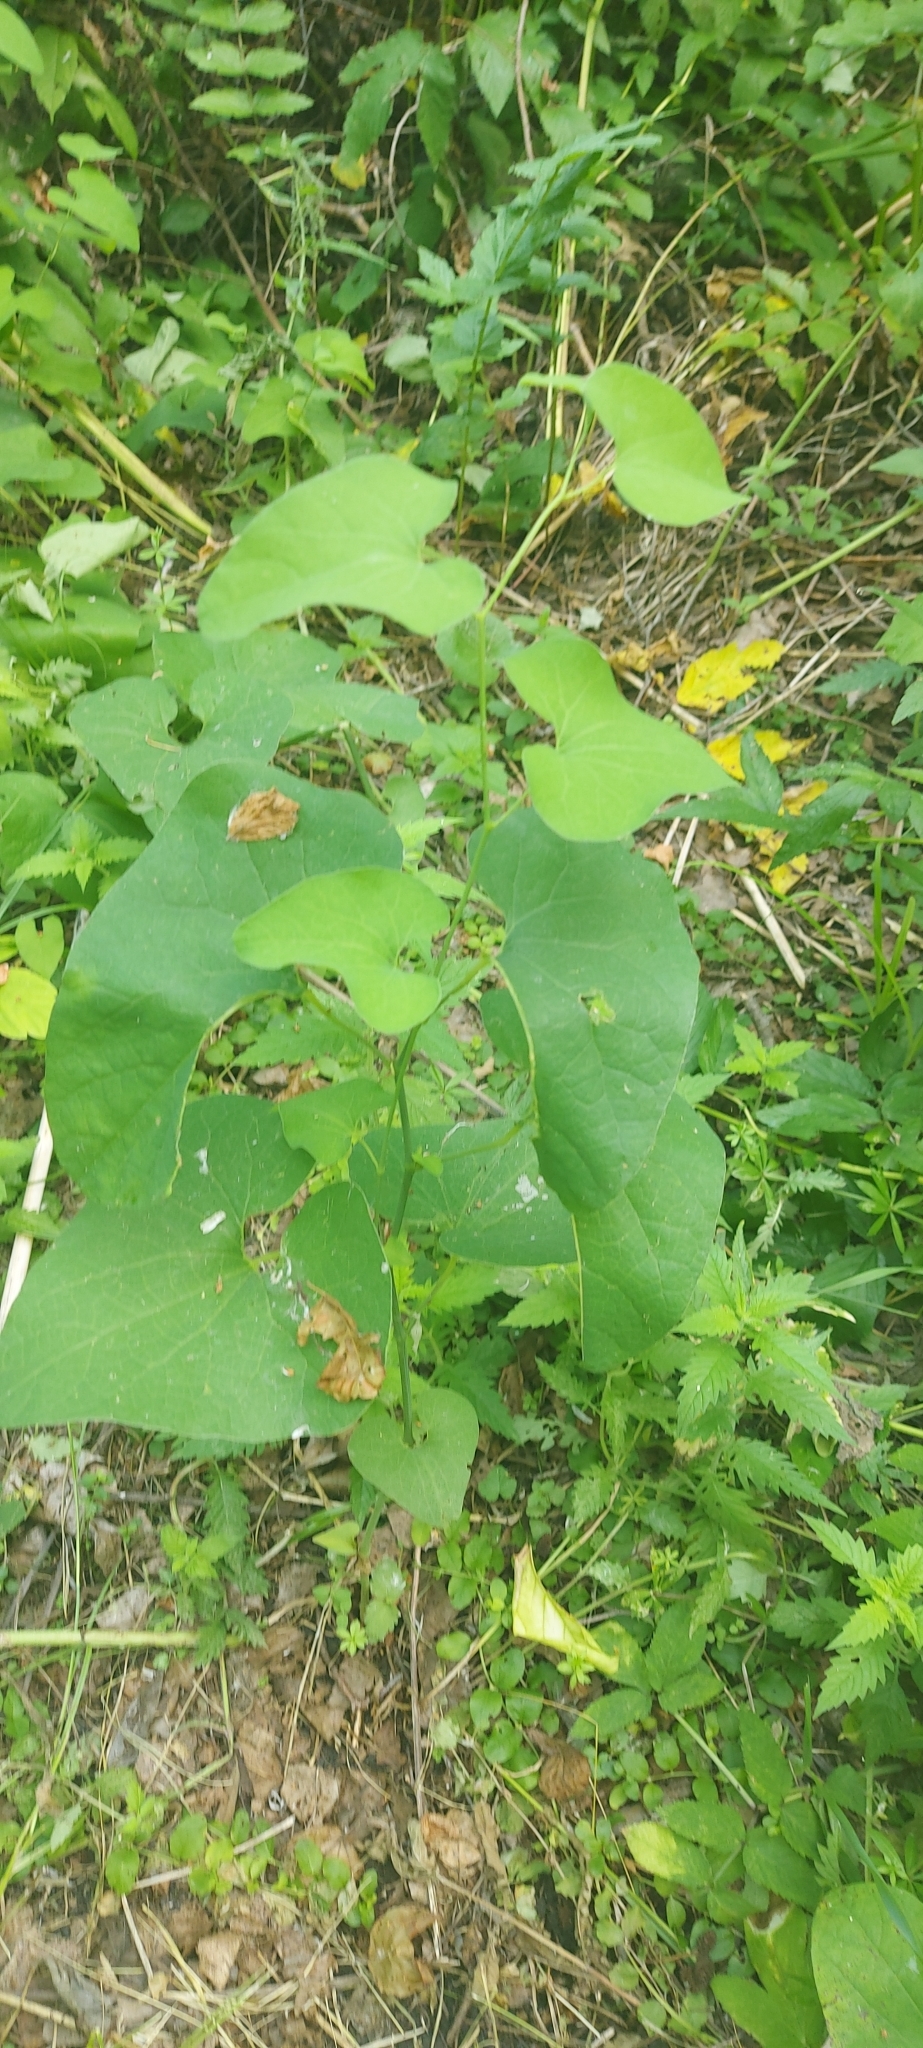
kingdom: Plantae
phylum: Tracheophyta
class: Magnoliopsida
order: Piperales
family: Aristolochiaceae
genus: Aristolochia
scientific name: Aristolochia clematitis
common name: Birthwort
